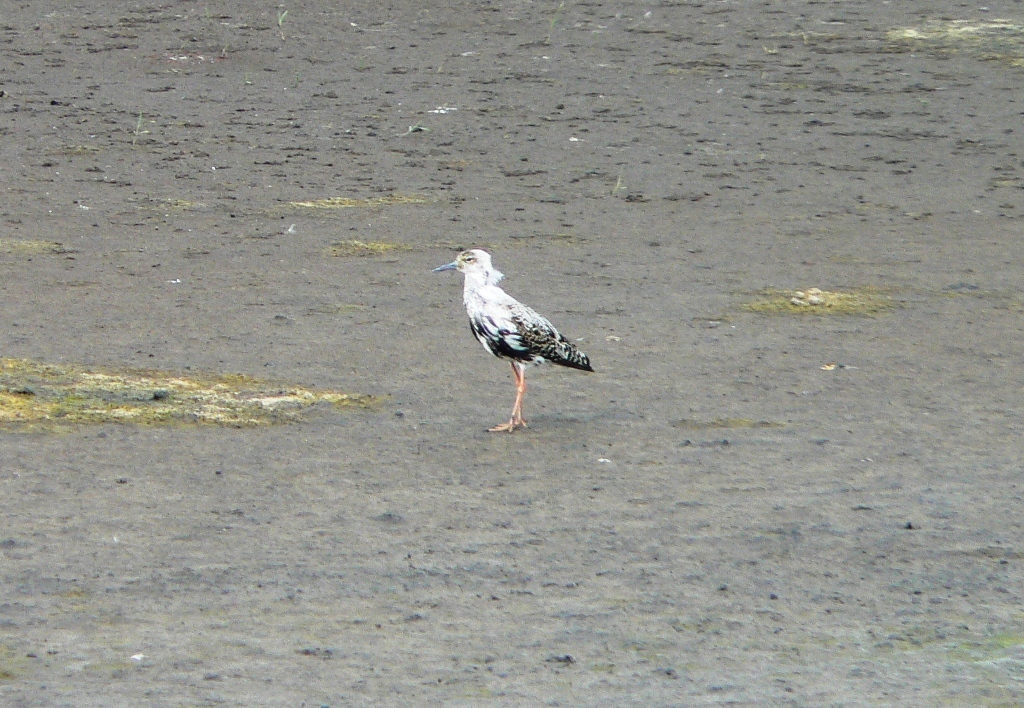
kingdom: Animalia
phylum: Chordata
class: Aves
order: Charadriiformes
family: Scolopacidae
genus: Calidris
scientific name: Calidris pugnax
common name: Ruff
